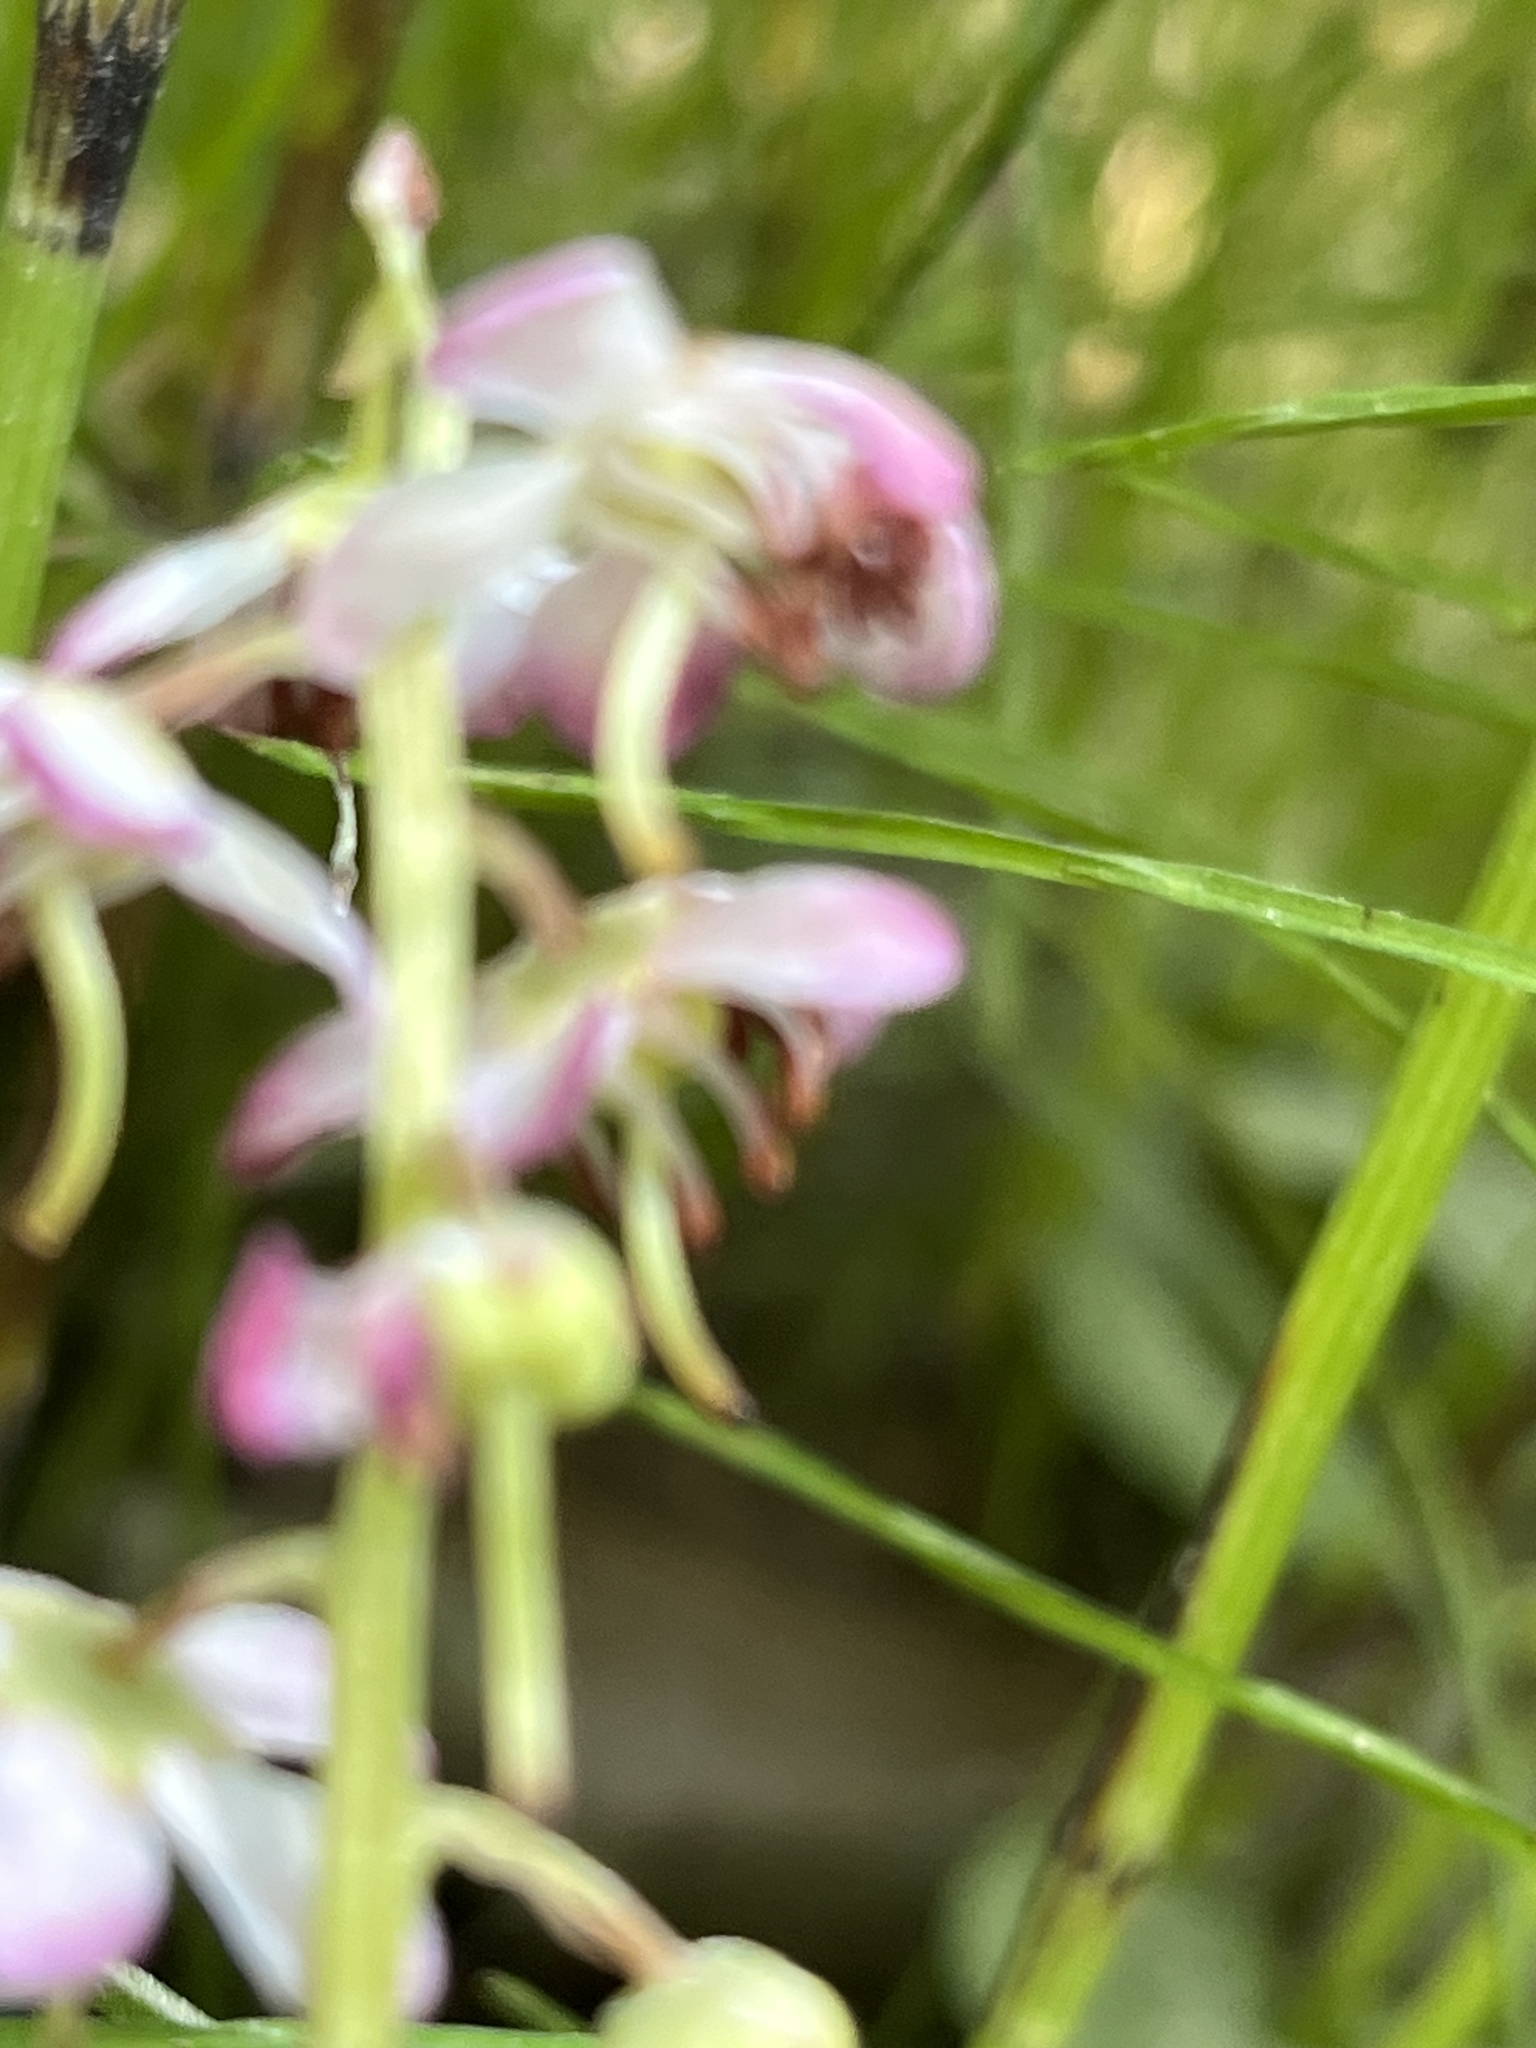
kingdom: Plantae
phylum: Tracheophyta
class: Magnoliopsida
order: Ericales
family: Ericaceae
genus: Pyrola
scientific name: Pyrola asarifolia
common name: Bog wintergreen
